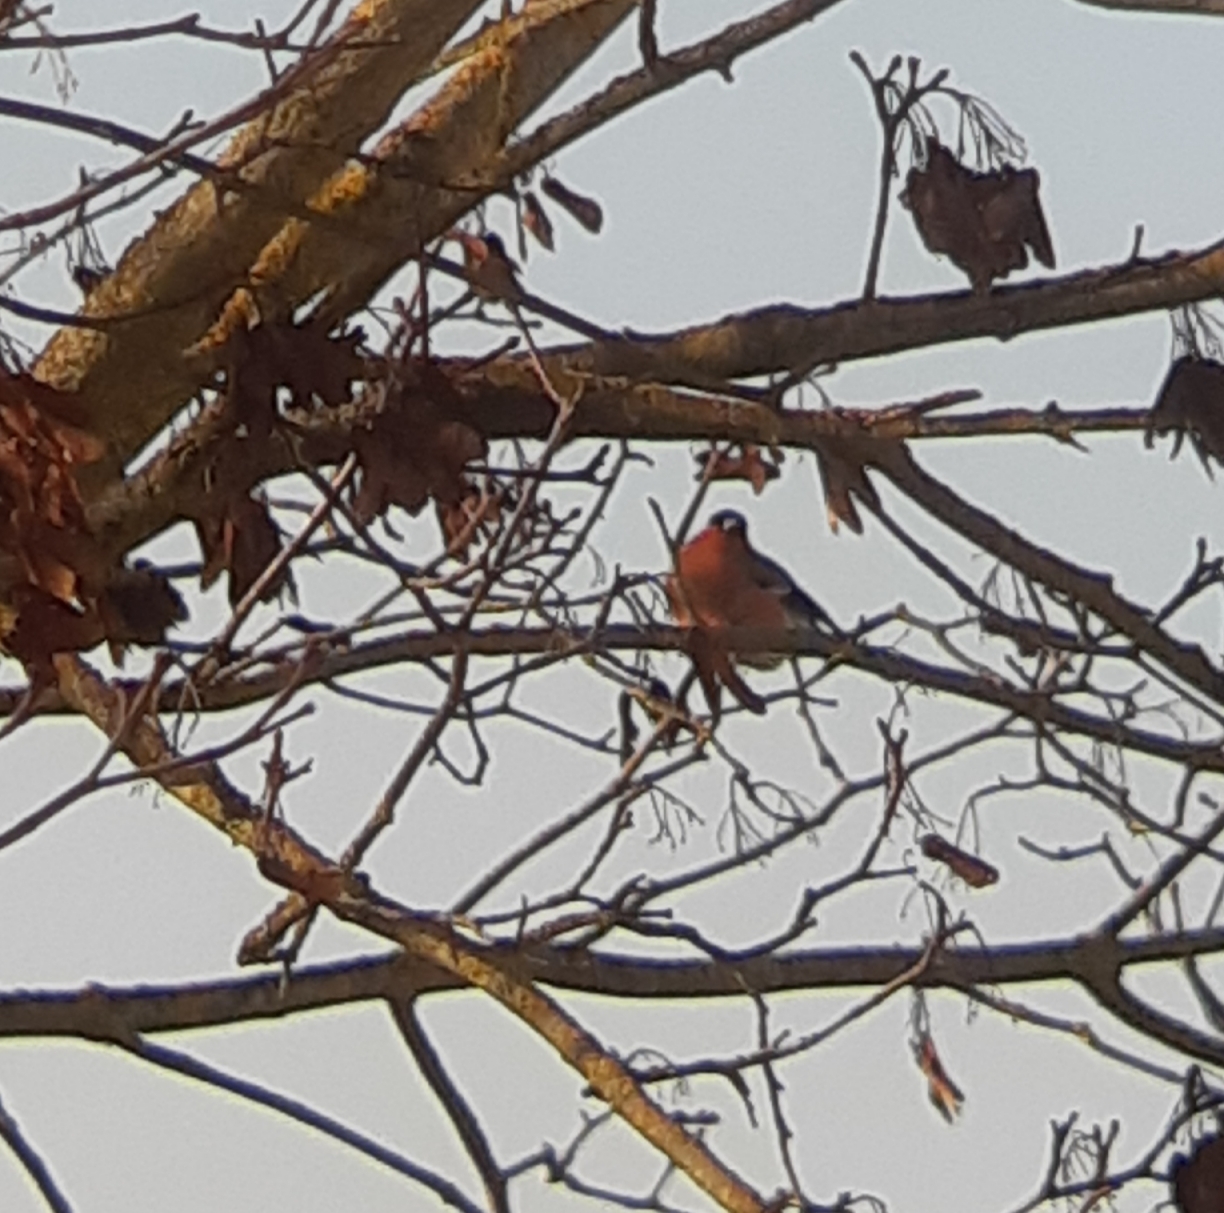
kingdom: Animalia
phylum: Chordata
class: Aves
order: Passeriformes
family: Fringillidae
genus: Pyrrhula
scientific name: Pyrrhula pyrrhula
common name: Eurasian bullfinch
